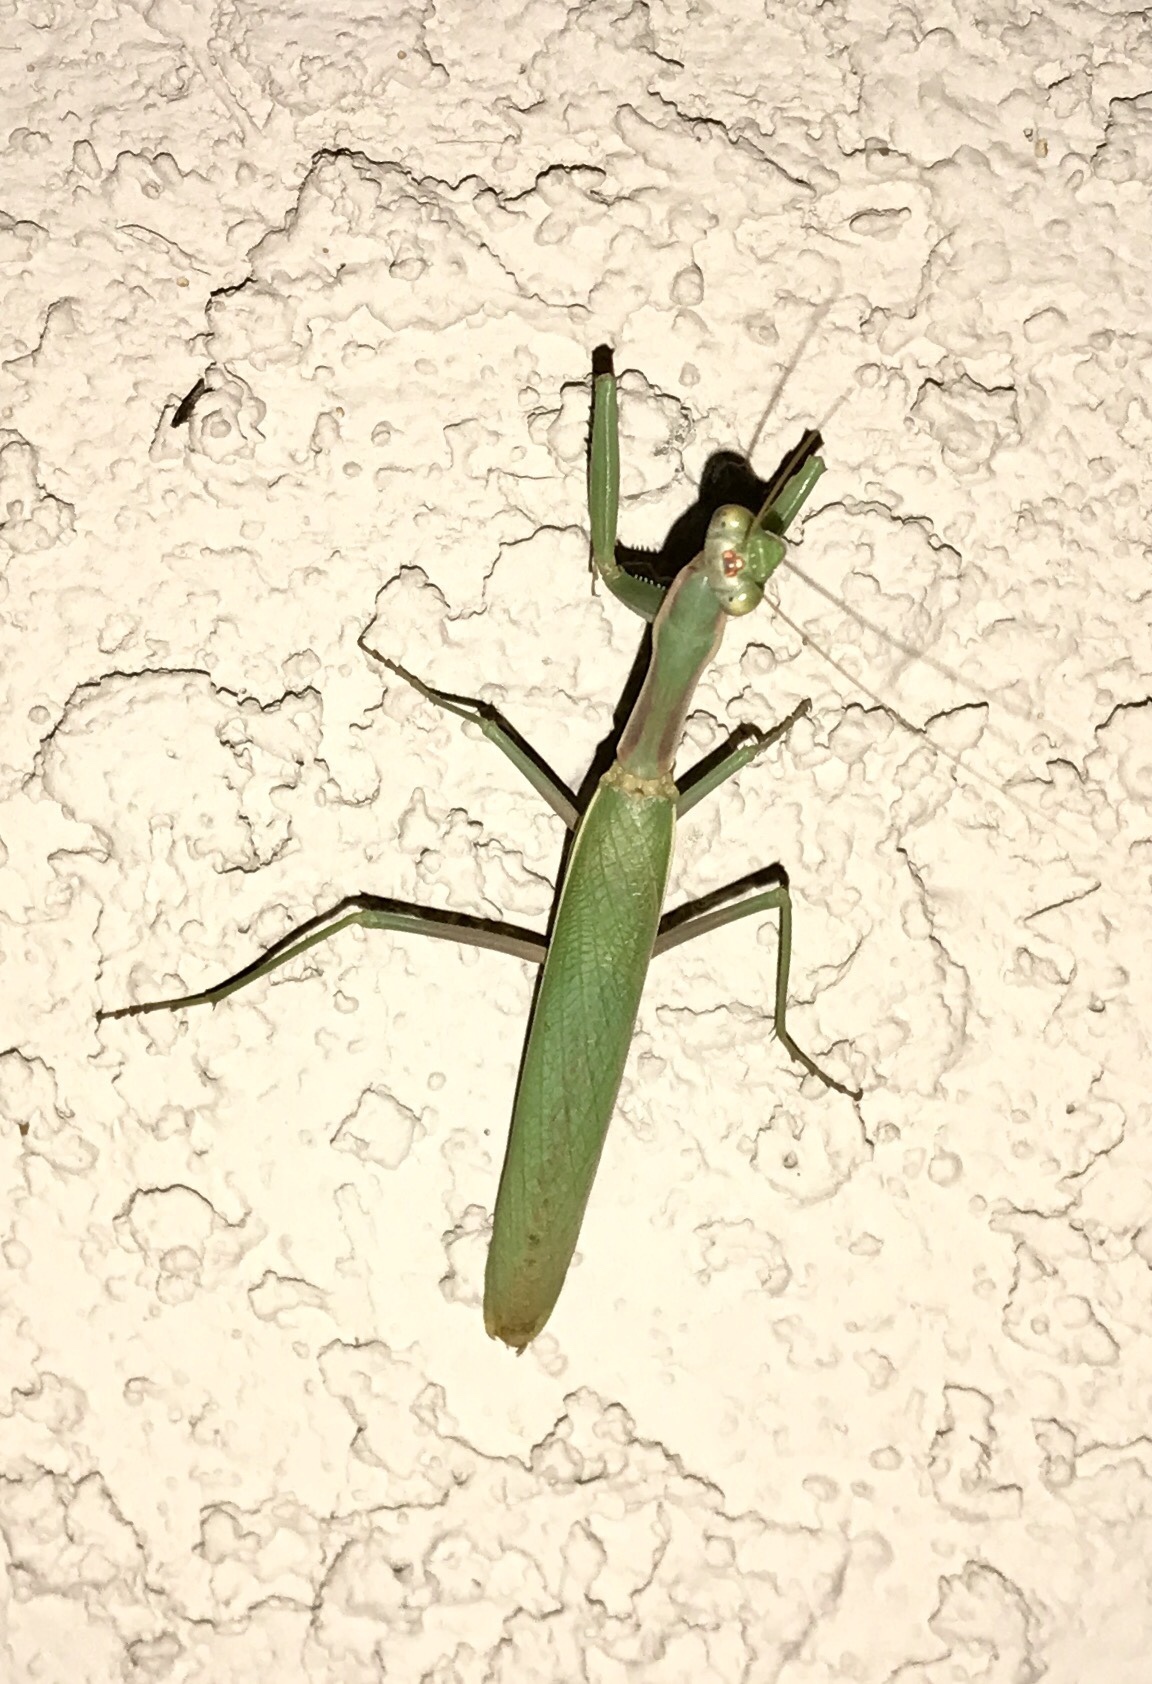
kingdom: Animalia
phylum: Arthropoda
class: Insecta
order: Mantodea
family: Eremiaphilidae
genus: Iris
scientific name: Iris oratoria
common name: Mediterranean mantis
